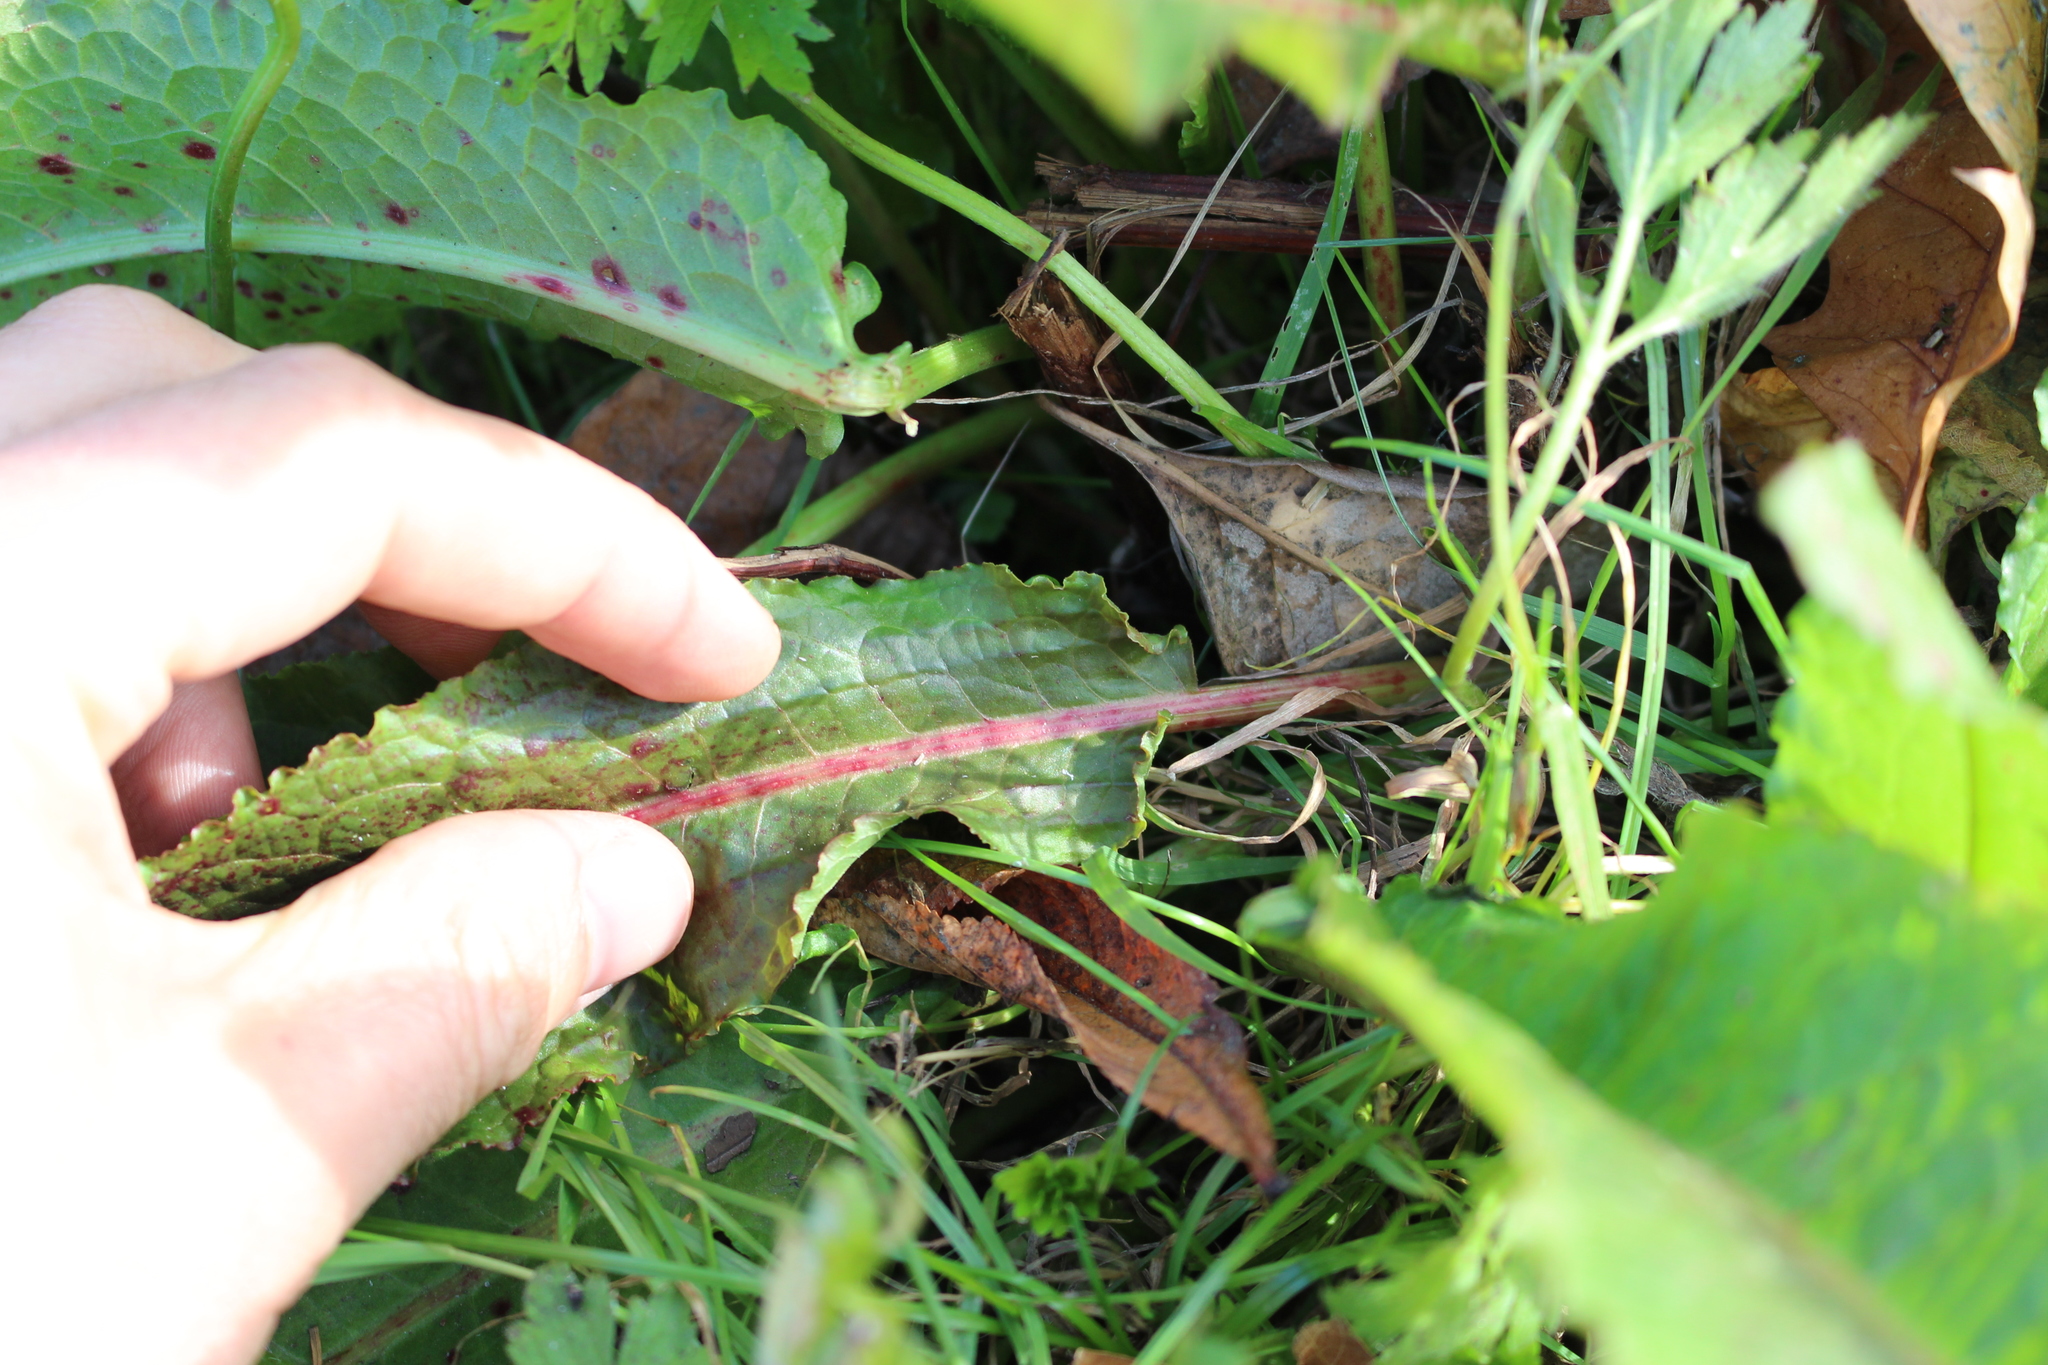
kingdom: Plantae
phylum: Tracheophyta
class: Magnoliopsida
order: Caryophyllales
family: Polygonaceae
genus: Rumex
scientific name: Rumex conglomeratus
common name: Clustered dock
